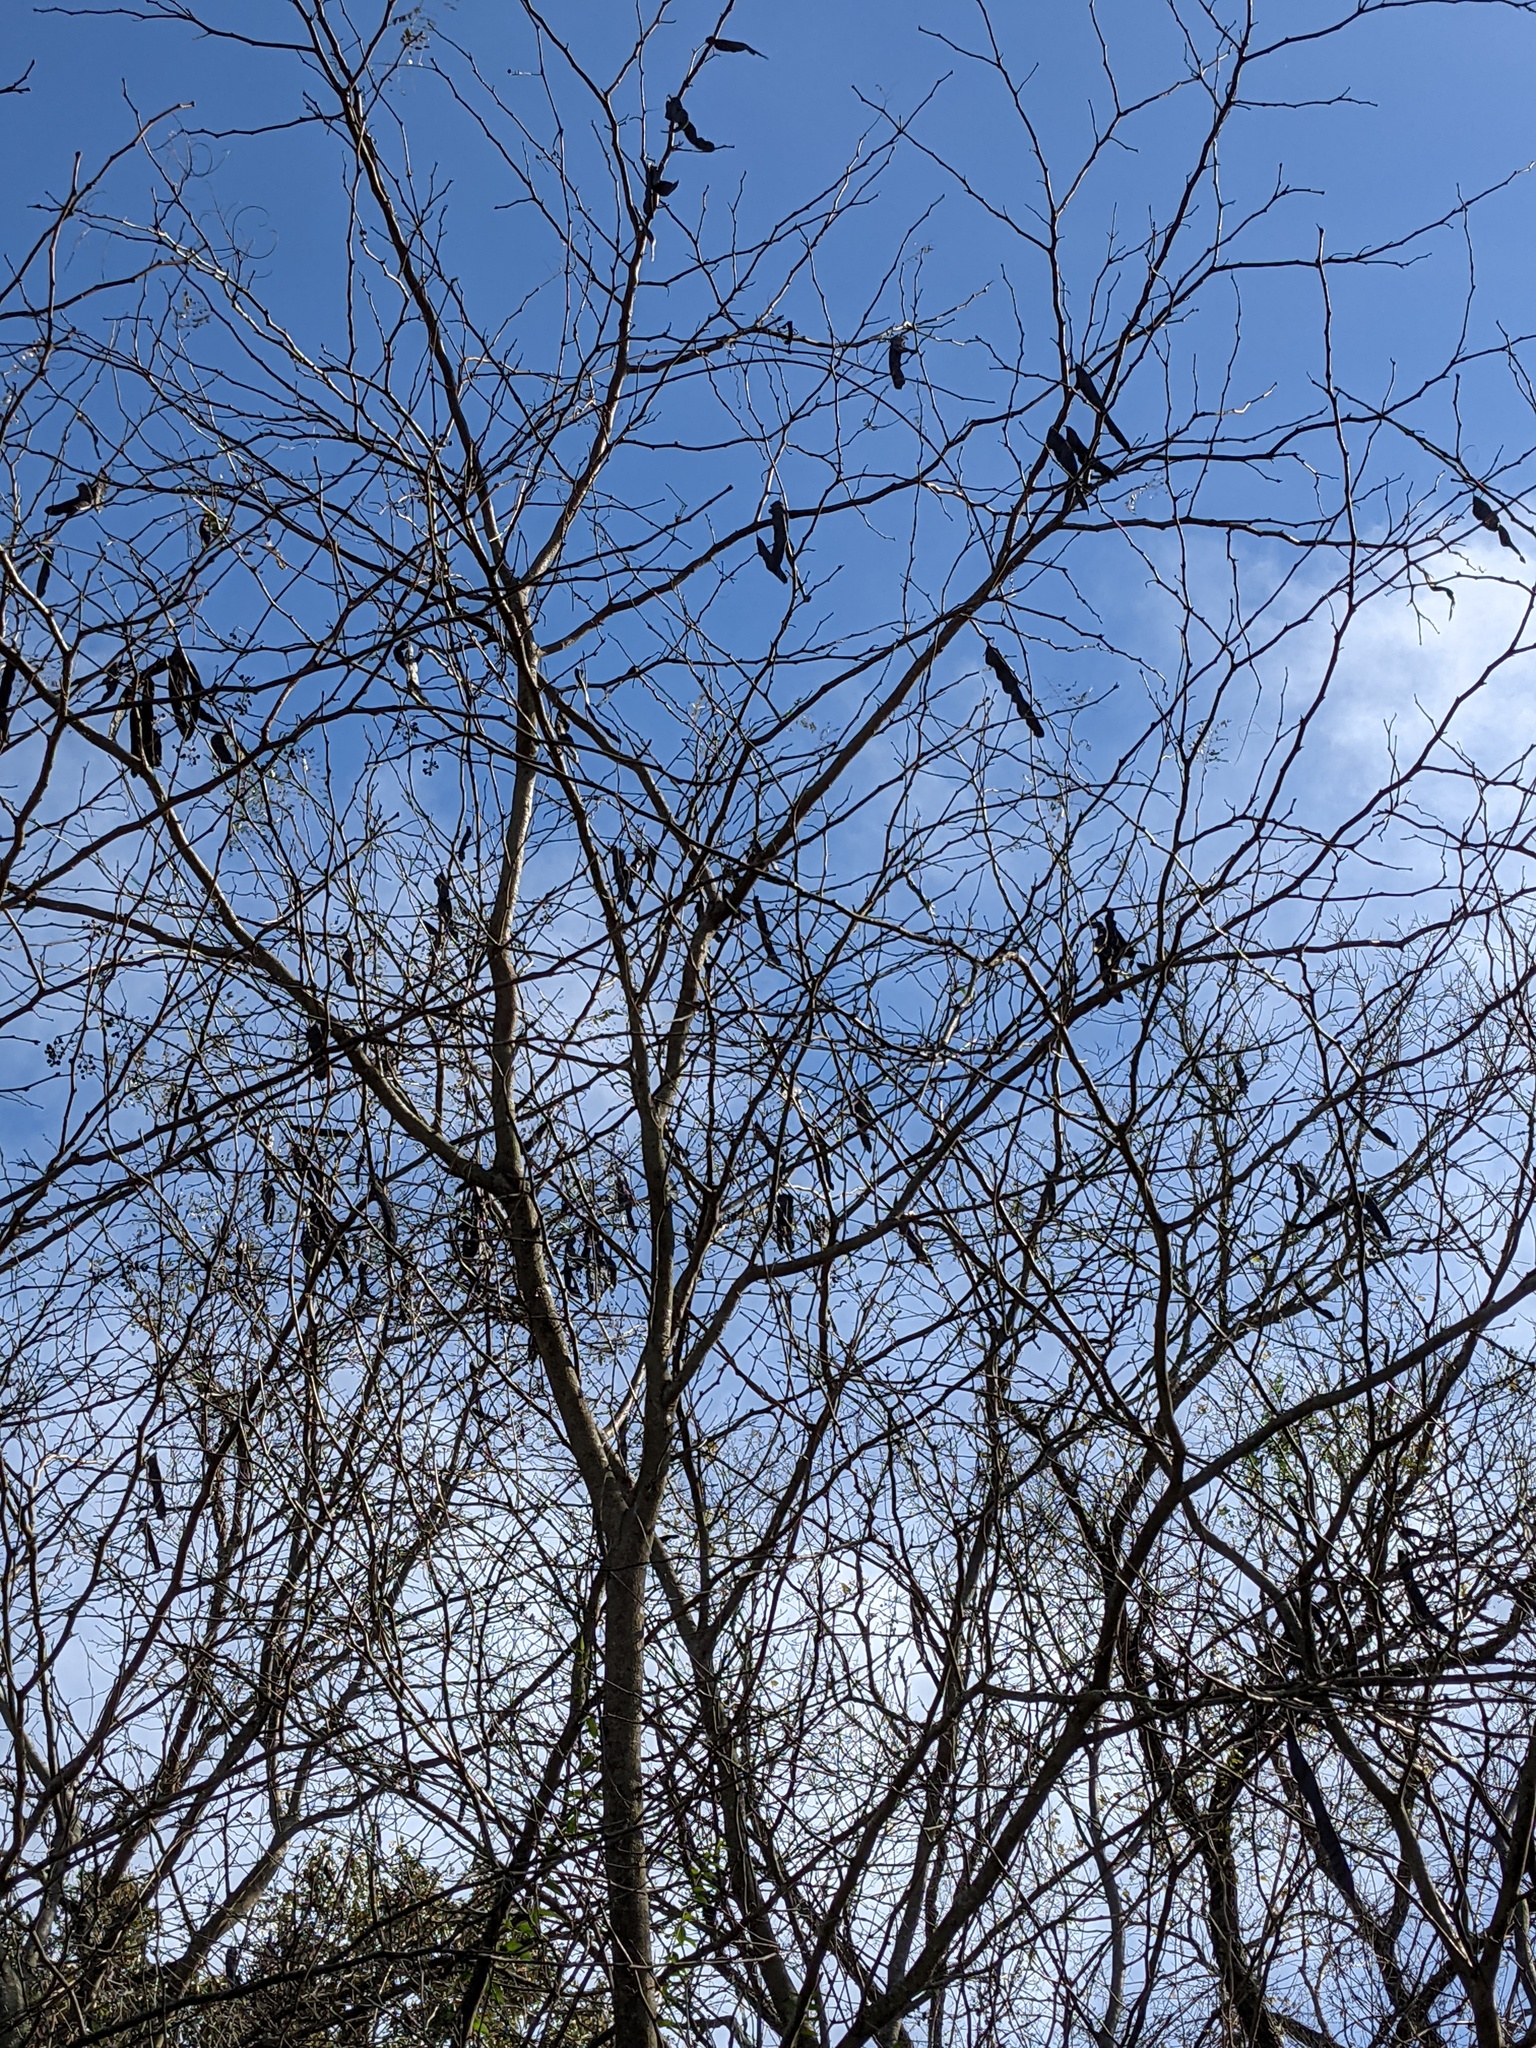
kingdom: Plantae
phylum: Tracheophyta
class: Magnoliopsida
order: Fabales
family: Fabaceae
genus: Gleditsia
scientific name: Gleditsia triacanthos
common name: Common honeylocust
